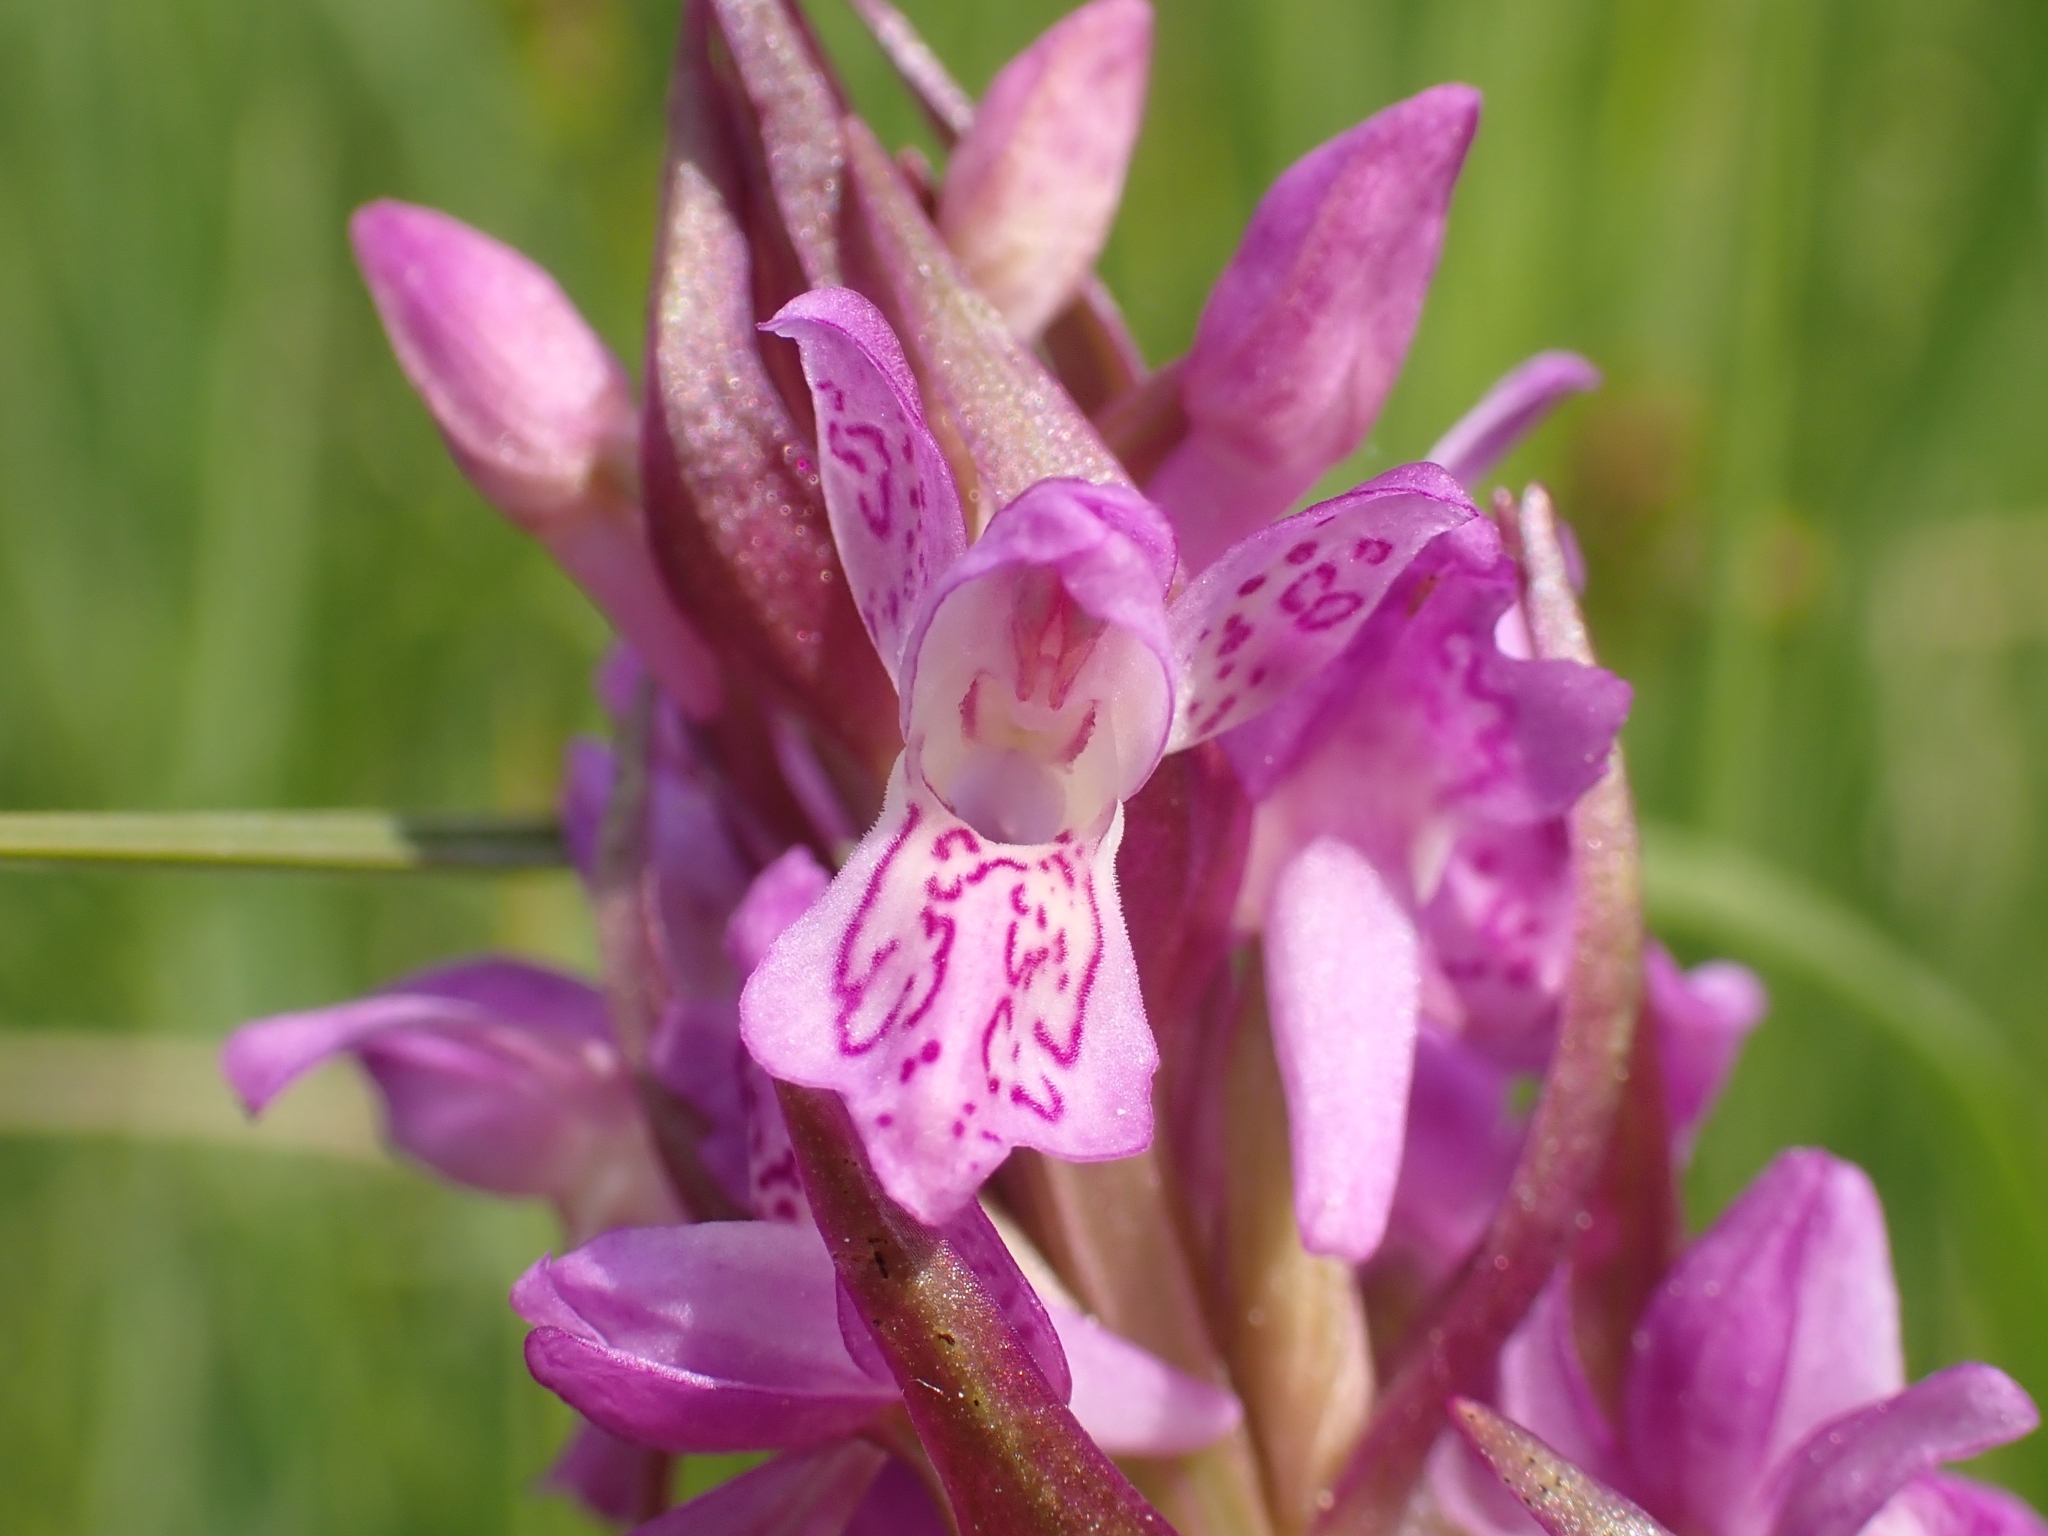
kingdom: Plantae
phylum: Tracheophyta
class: Liliopsida
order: Asparagales
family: Orchidaceae
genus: Dactylorhiza
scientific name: Dactylorhiza incarnata
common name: Early marsh-orchid
